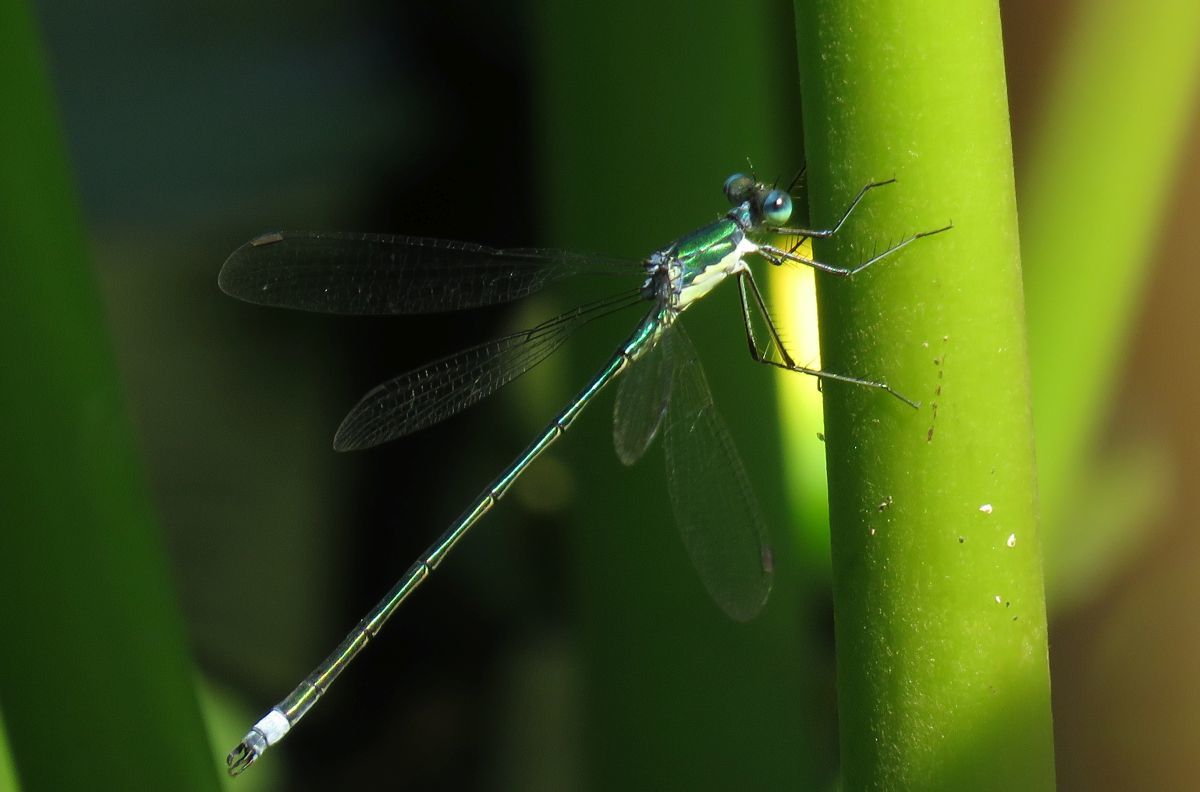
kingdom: Animalia
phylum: Arthropoda
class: Insecta
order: Odonata
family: Lestidae
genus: Lestes
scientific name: Lestes inaequalis
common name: Elegant spreadwing
